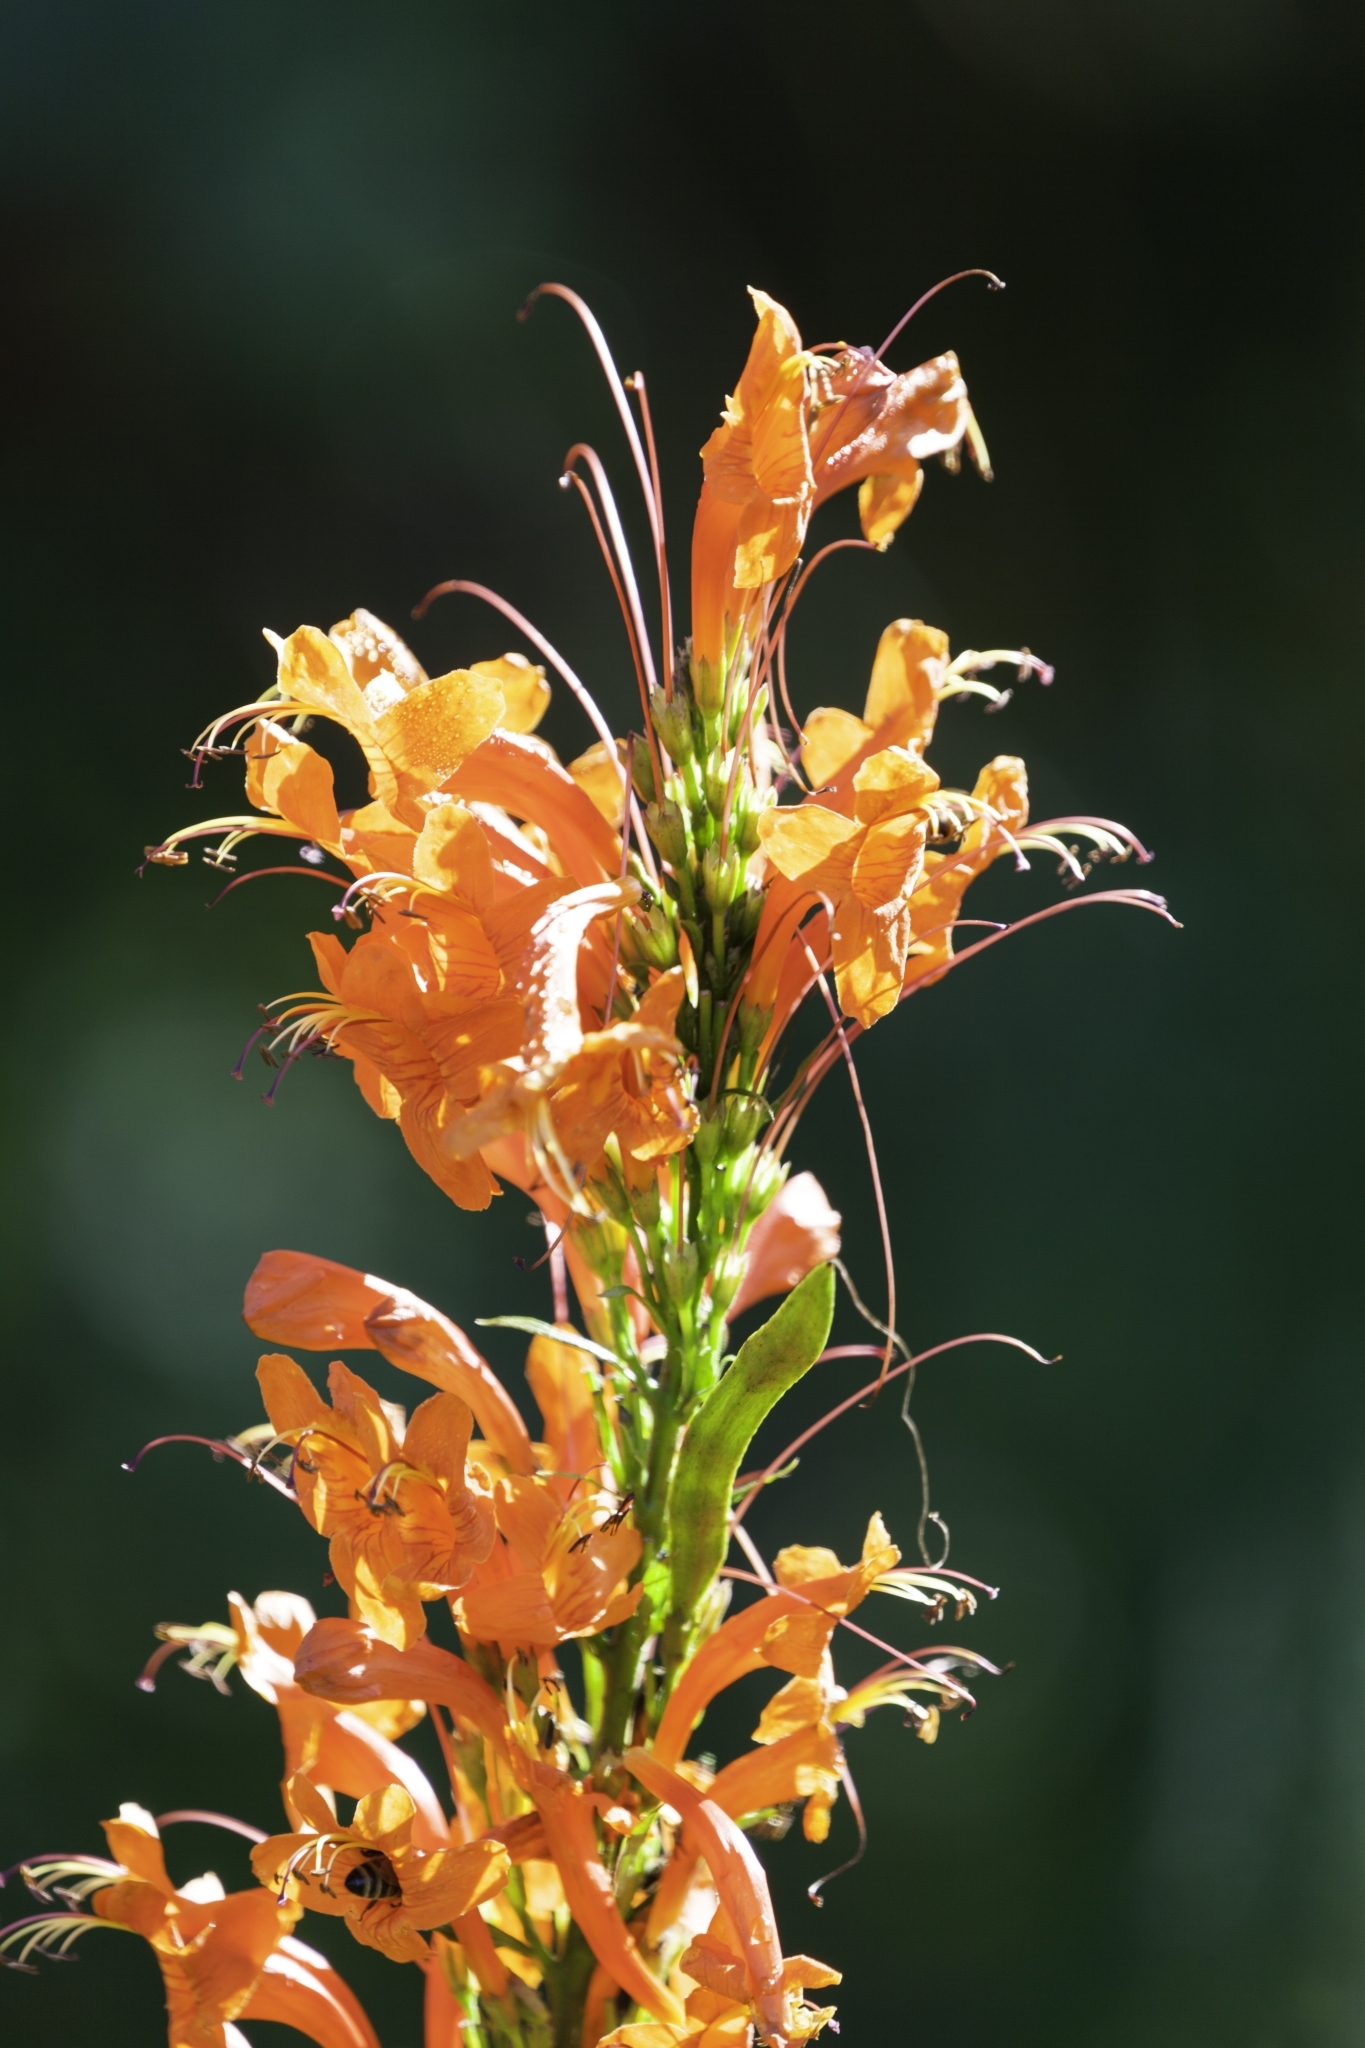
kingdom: Plantae
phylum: Tracheophyta
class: Magnoliopsida
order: Lamiales
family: Bignoniaceae
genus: Tecomaria
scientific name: Tecomaria capensis
